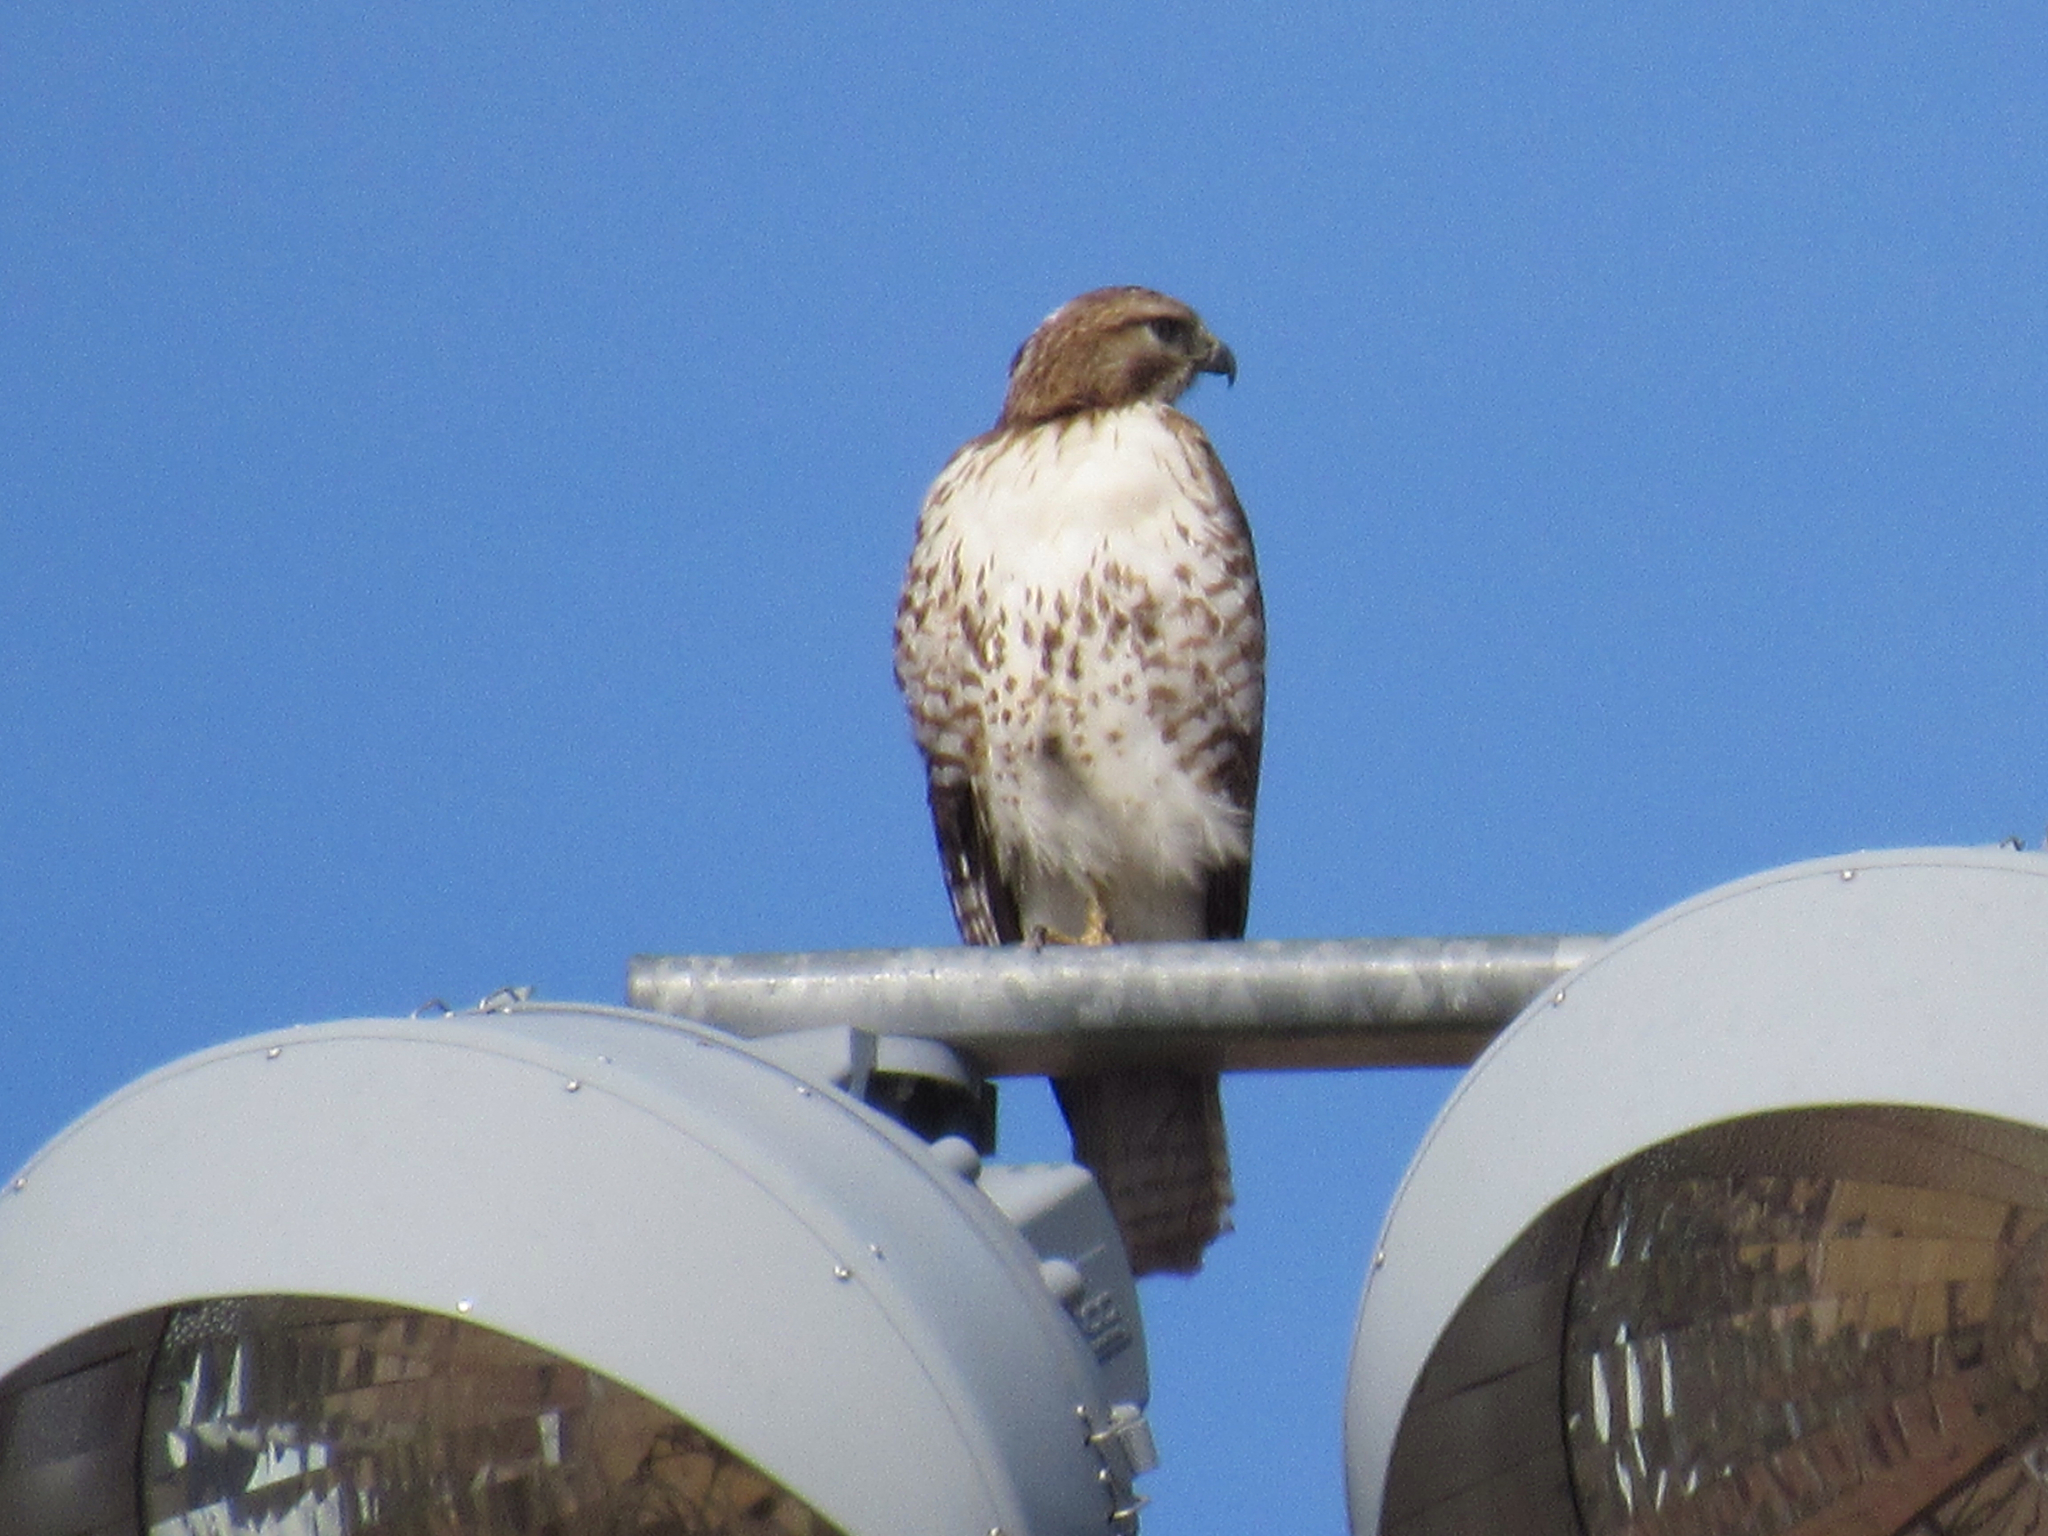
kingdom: Animalia
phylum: Chordata
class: Aves
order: Accipitriformes
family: Accipitridae
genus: Buteo
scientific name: Buteo jamaicensis
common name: Red-tailed hawk
